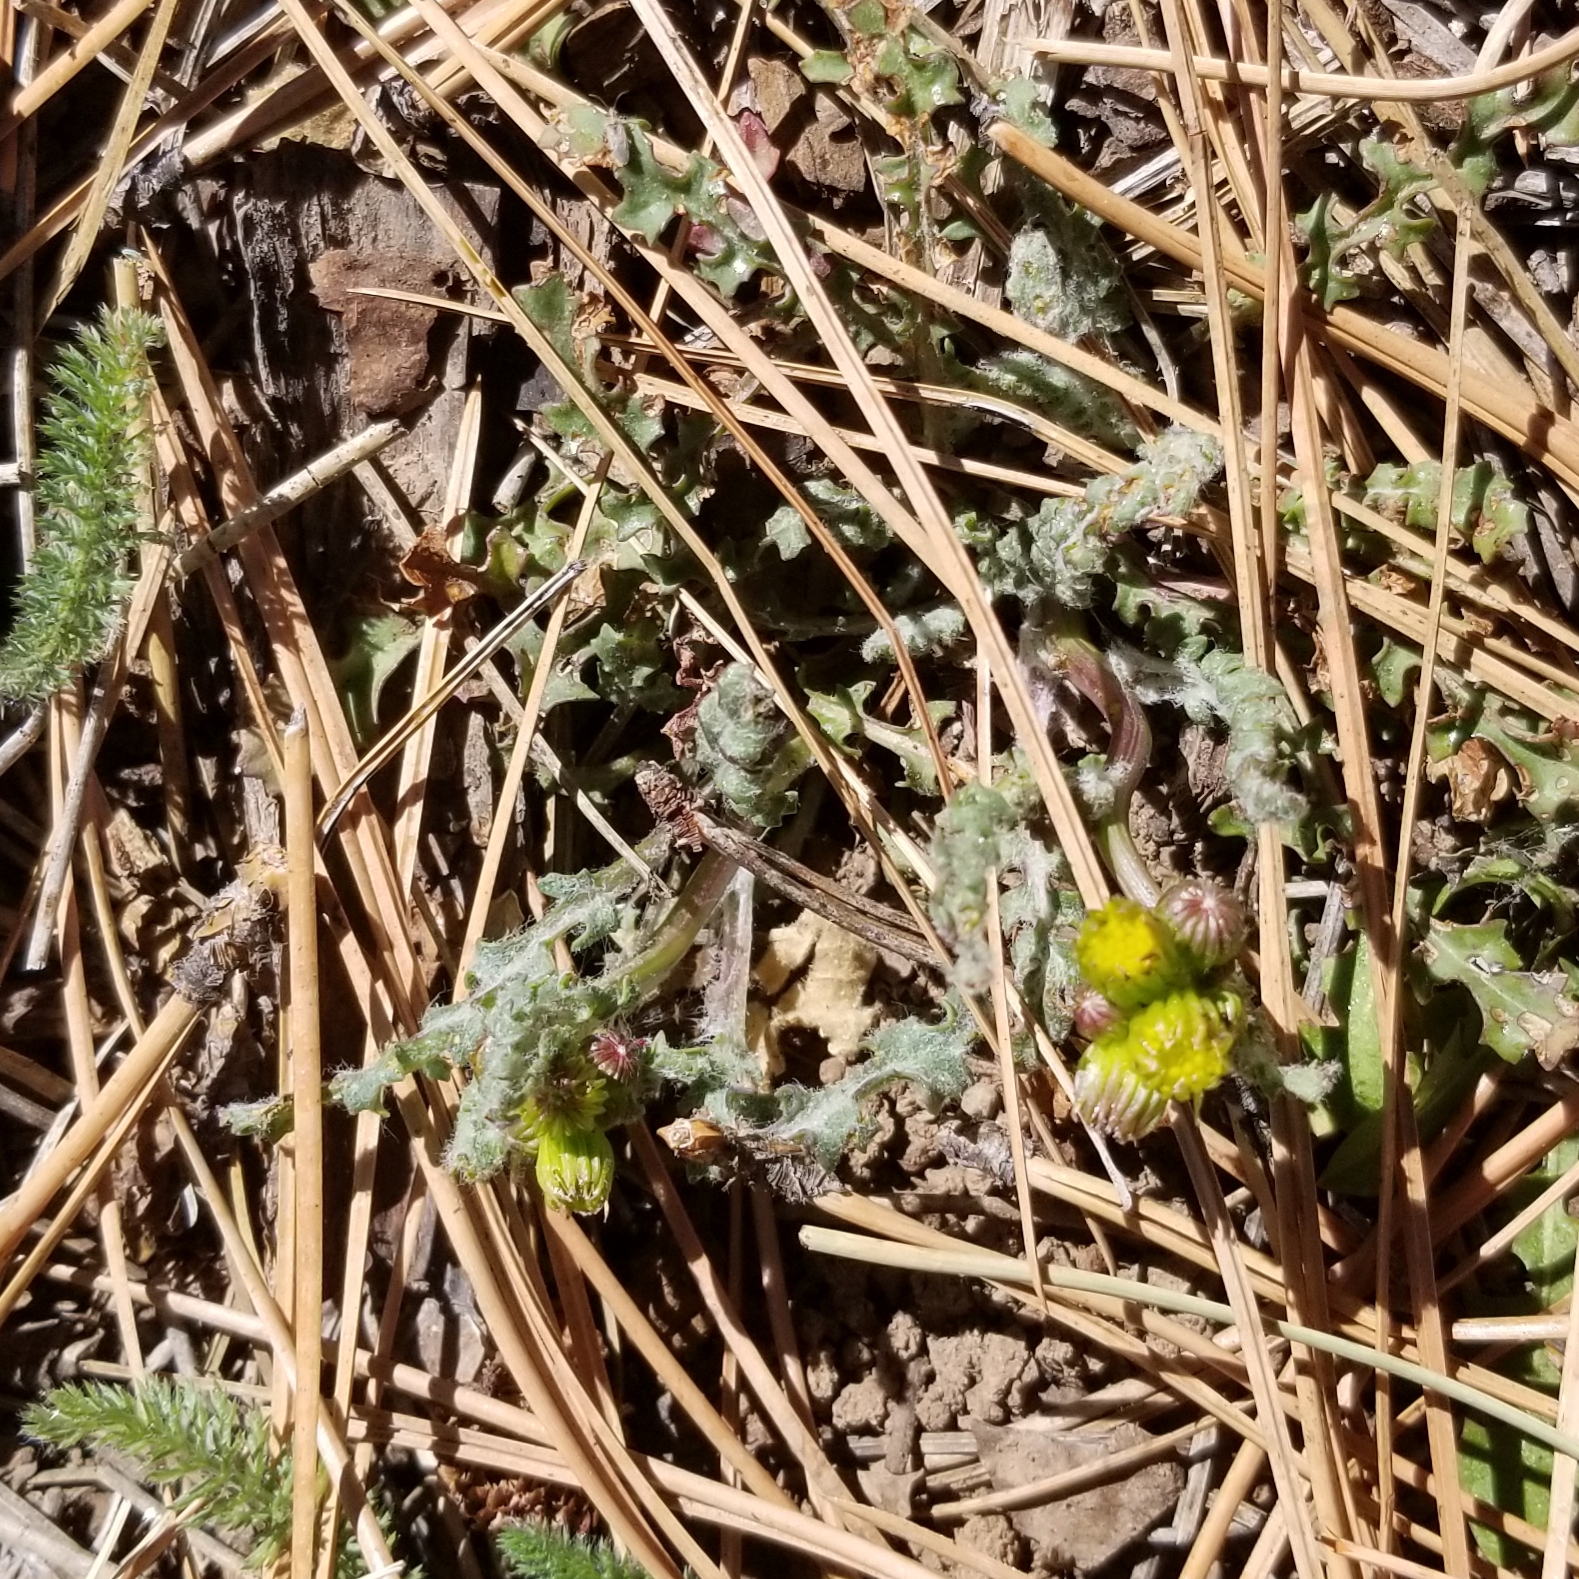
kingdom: Plantae
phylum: Tracheophyta
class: Magnoliopsida
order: Asterales
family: Asteraceae
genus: Packera
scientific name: Packera multilobata
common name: Lobe-leaf groundsel
